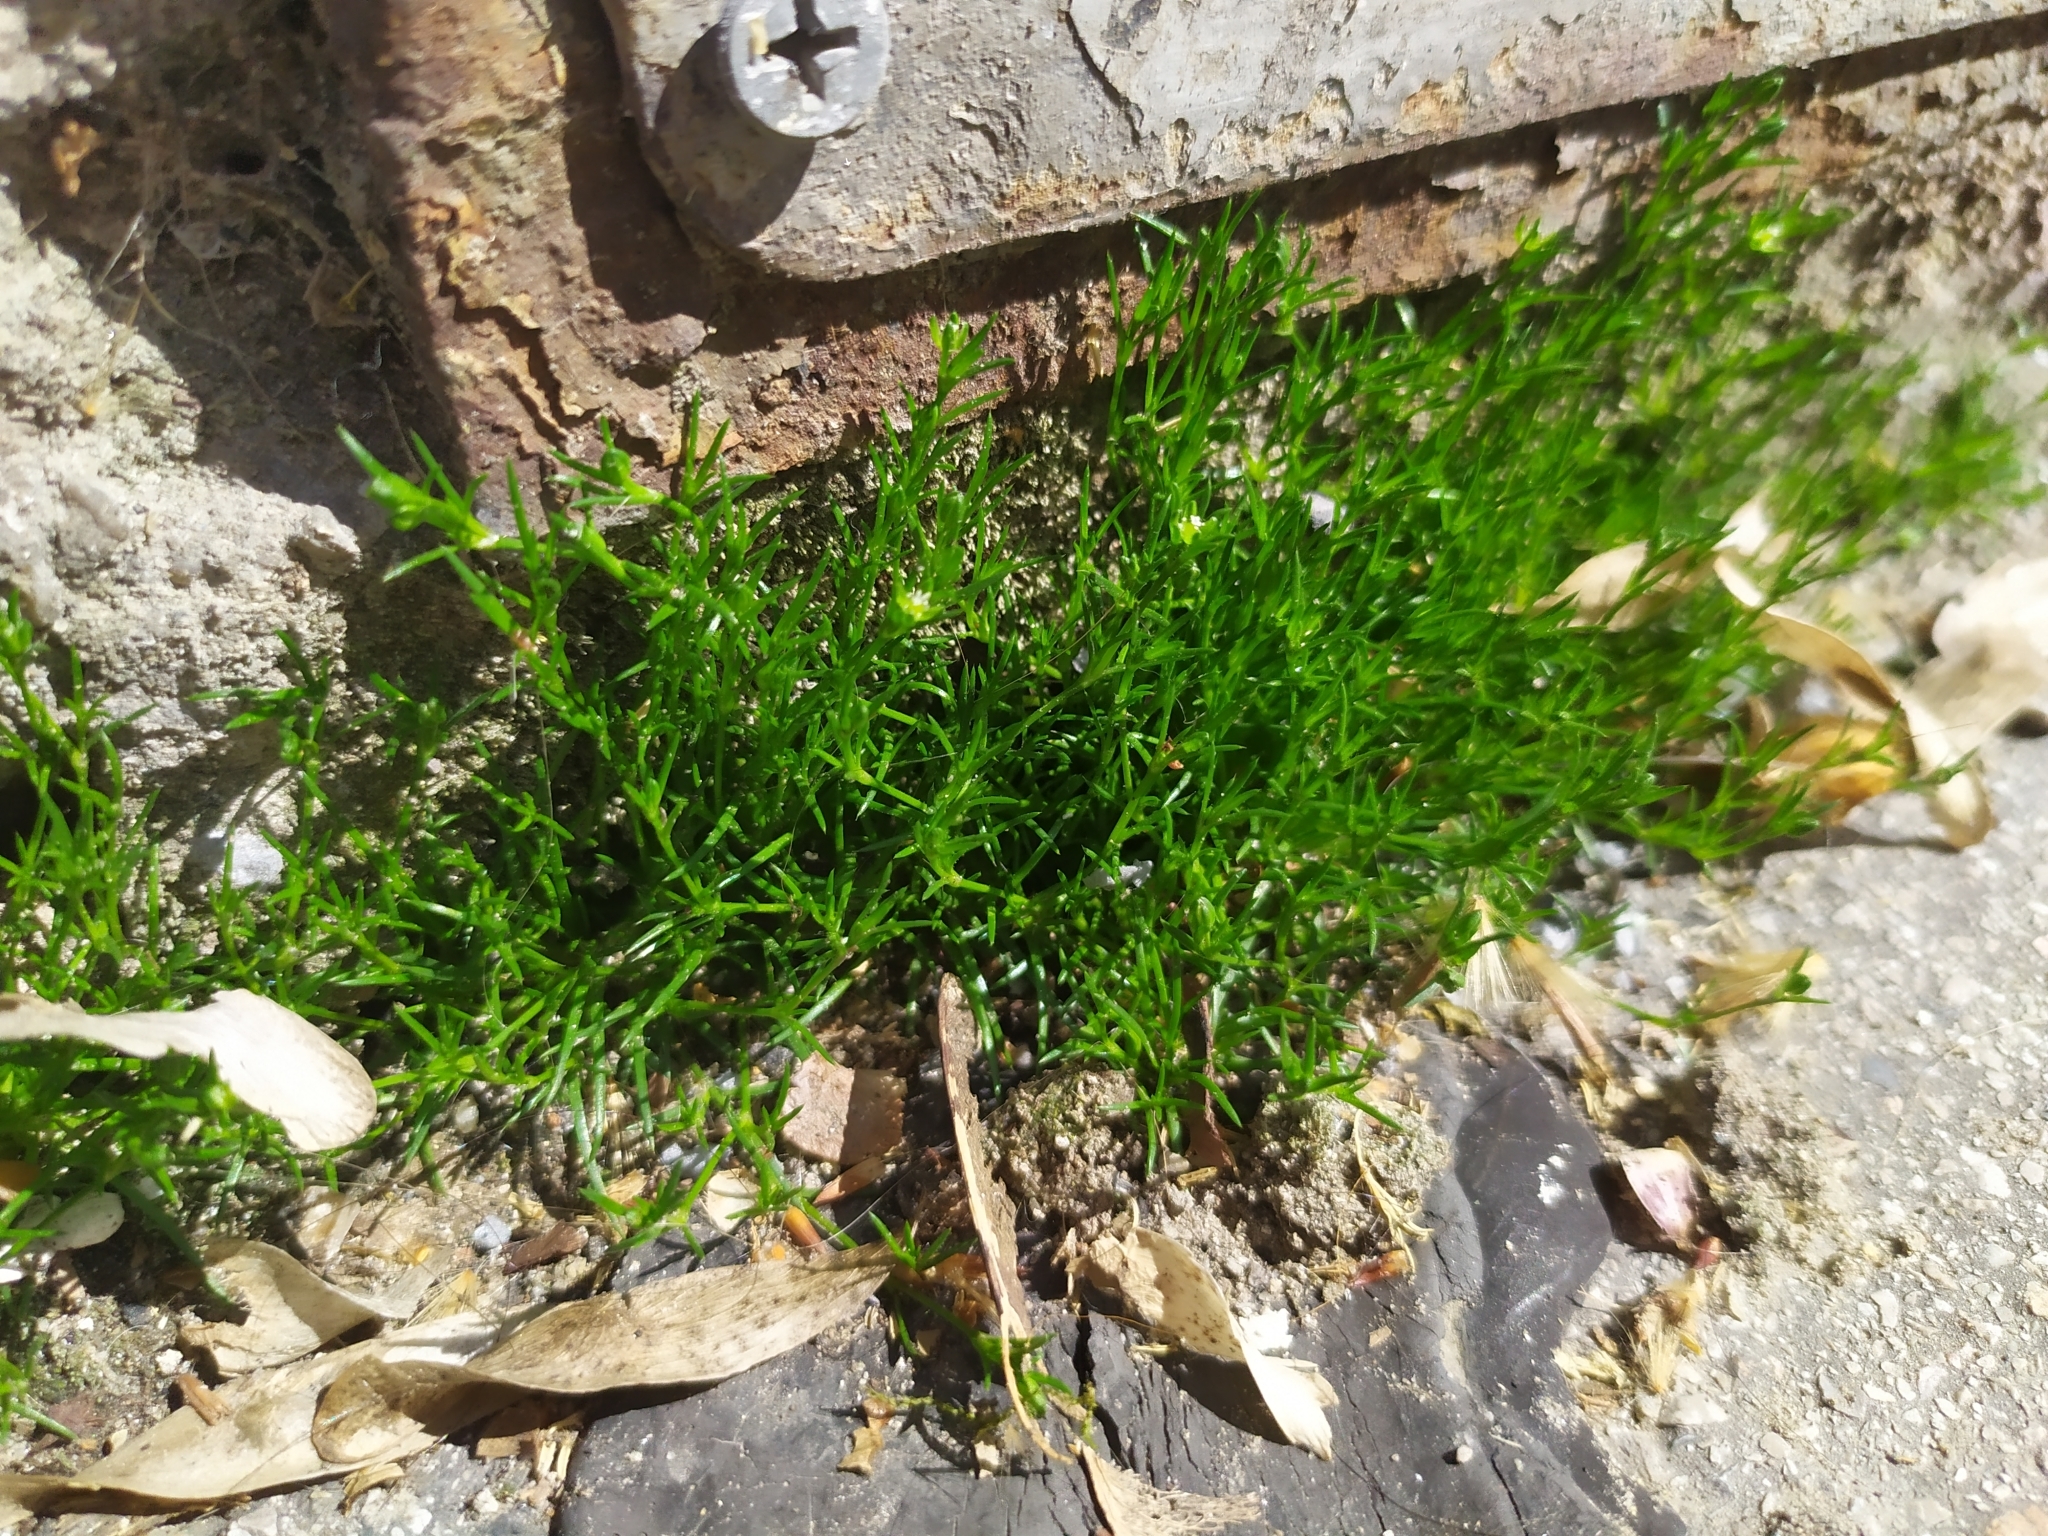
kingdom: Plantae
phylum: Tracheophyta
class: Magnoliopsida
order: Caryophyllales
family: Caryophyllaceae
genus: Sagina
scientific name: Sagina procumbens
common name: Procumbent pearlwort
